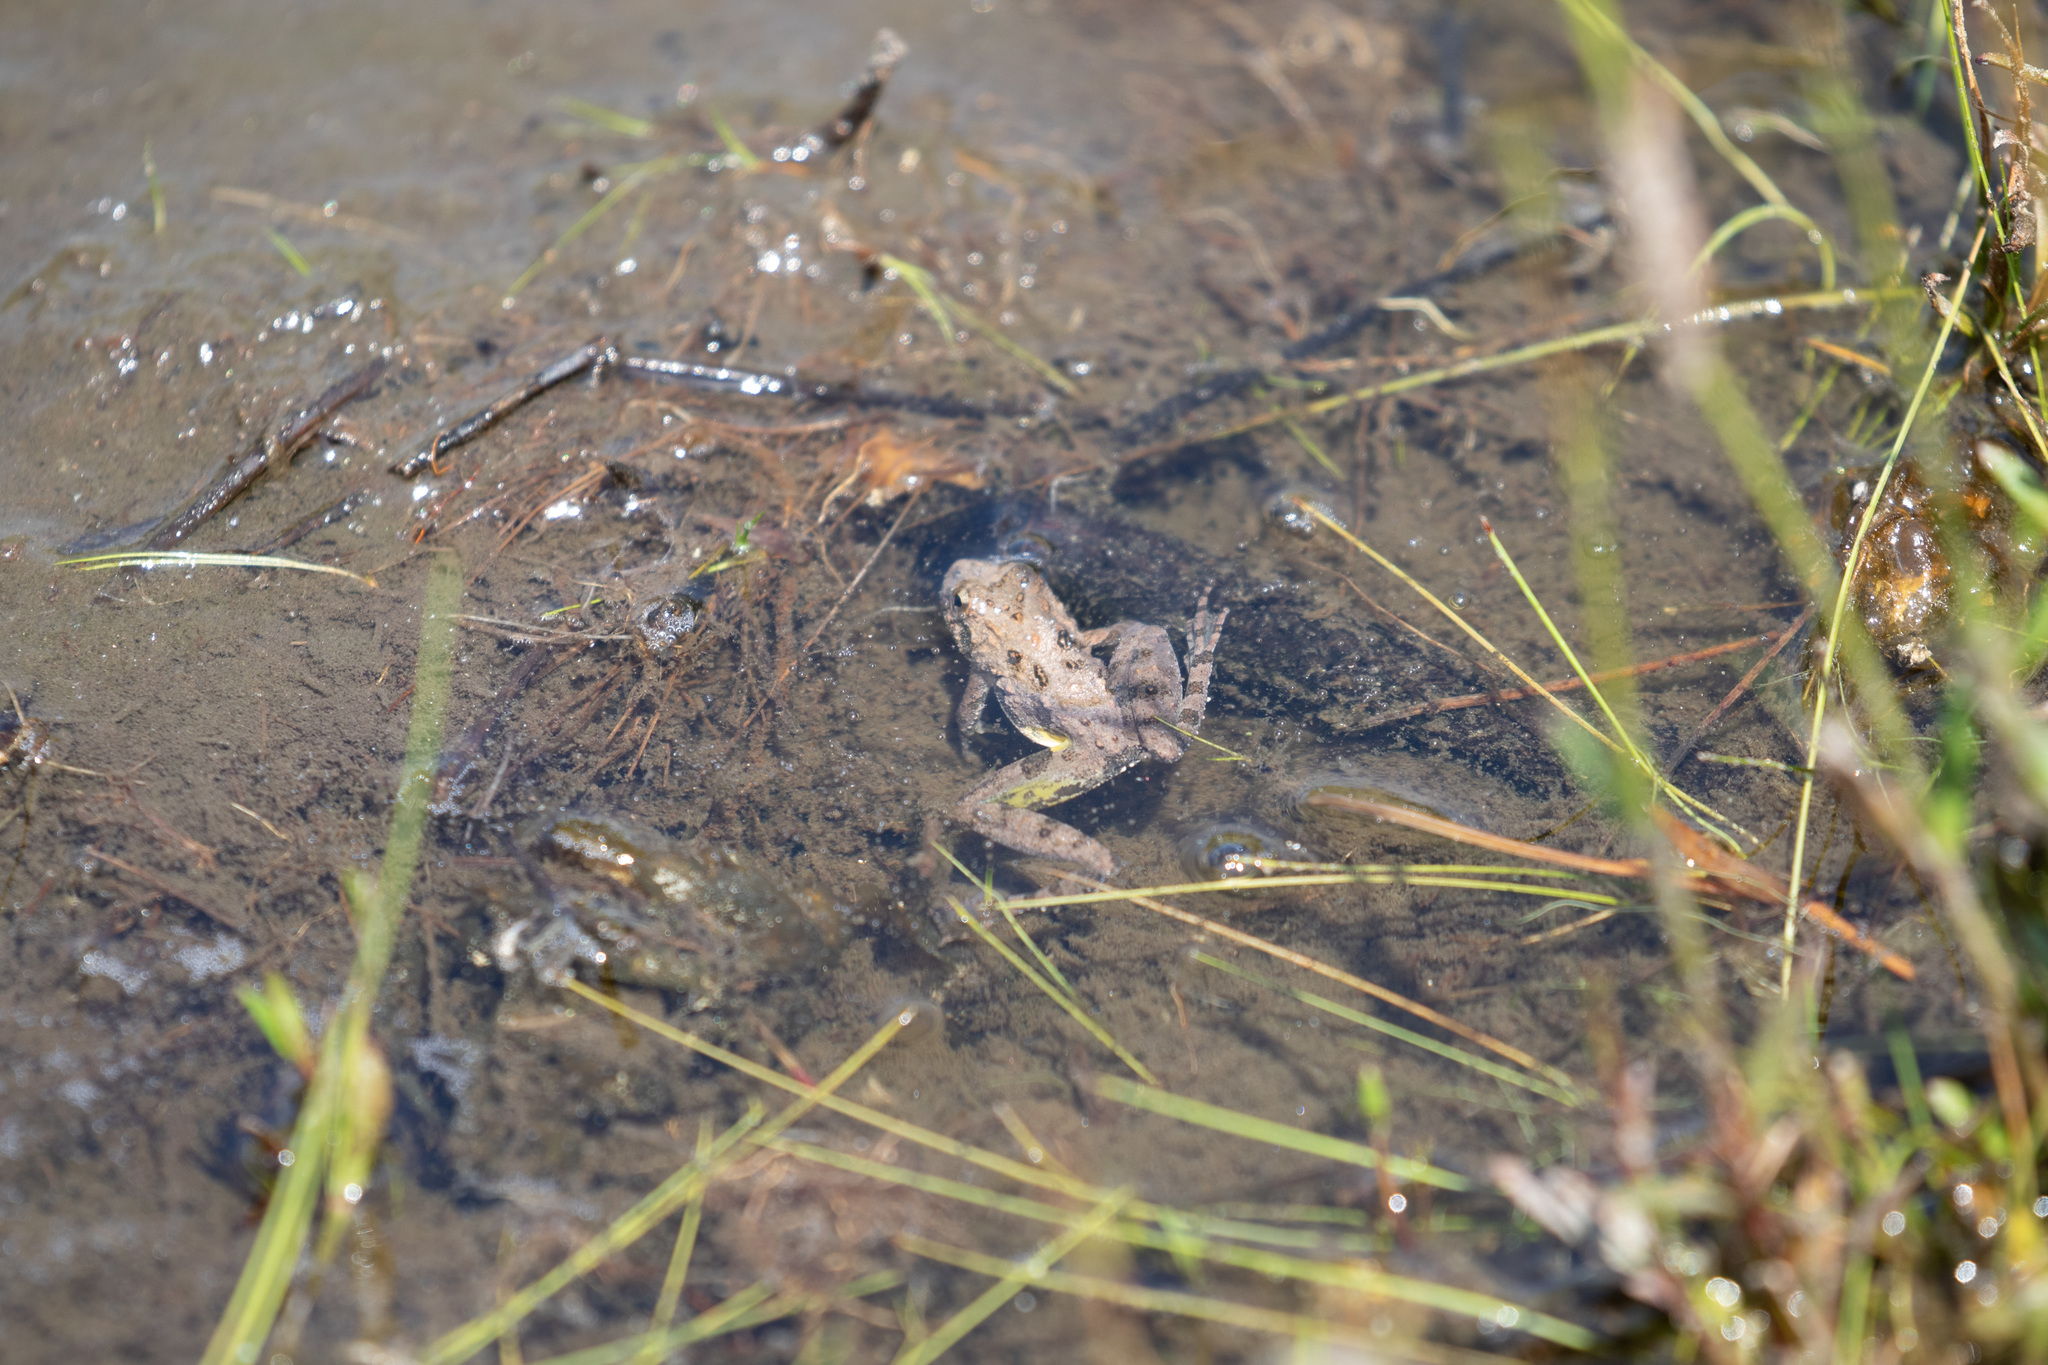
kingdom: Animalia
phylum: Chordata
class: Amphibia
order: Anura
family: Hylidae
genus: Acris
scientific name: Acris crepitans
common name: Northern cricket frog
